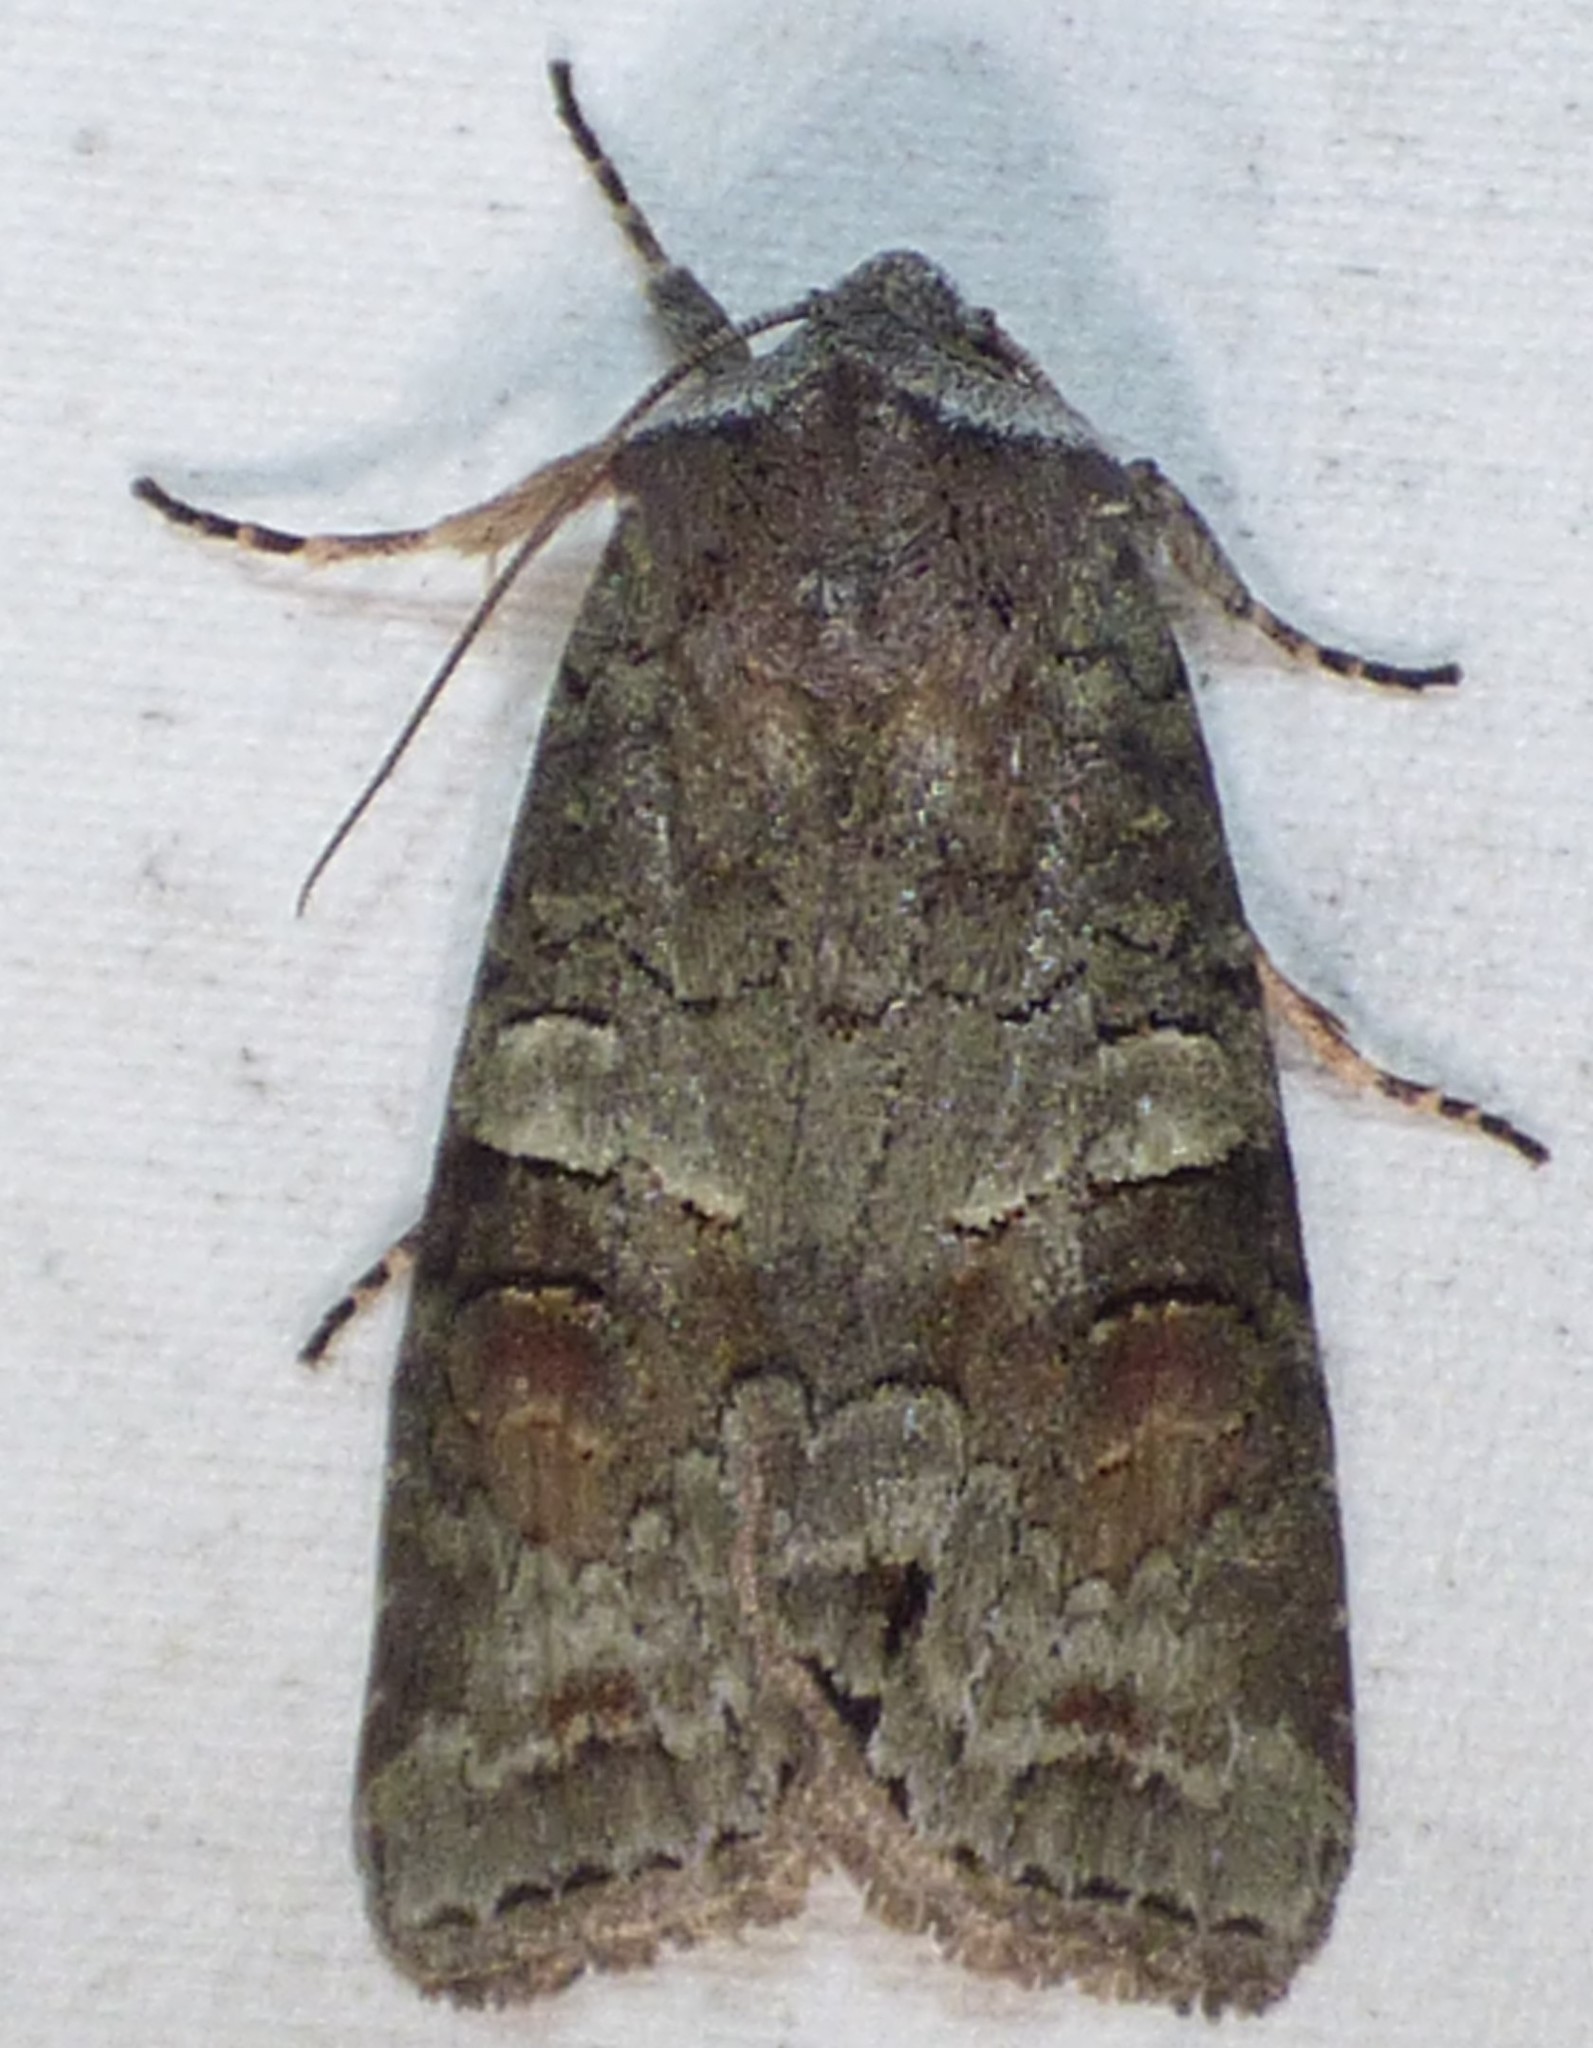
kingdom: Animalia
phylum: Arthropoda
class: Insecta
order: Lepidoptera
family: Noctuidae
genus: Egira
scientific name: Egira alternans
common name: Alternate woodling
